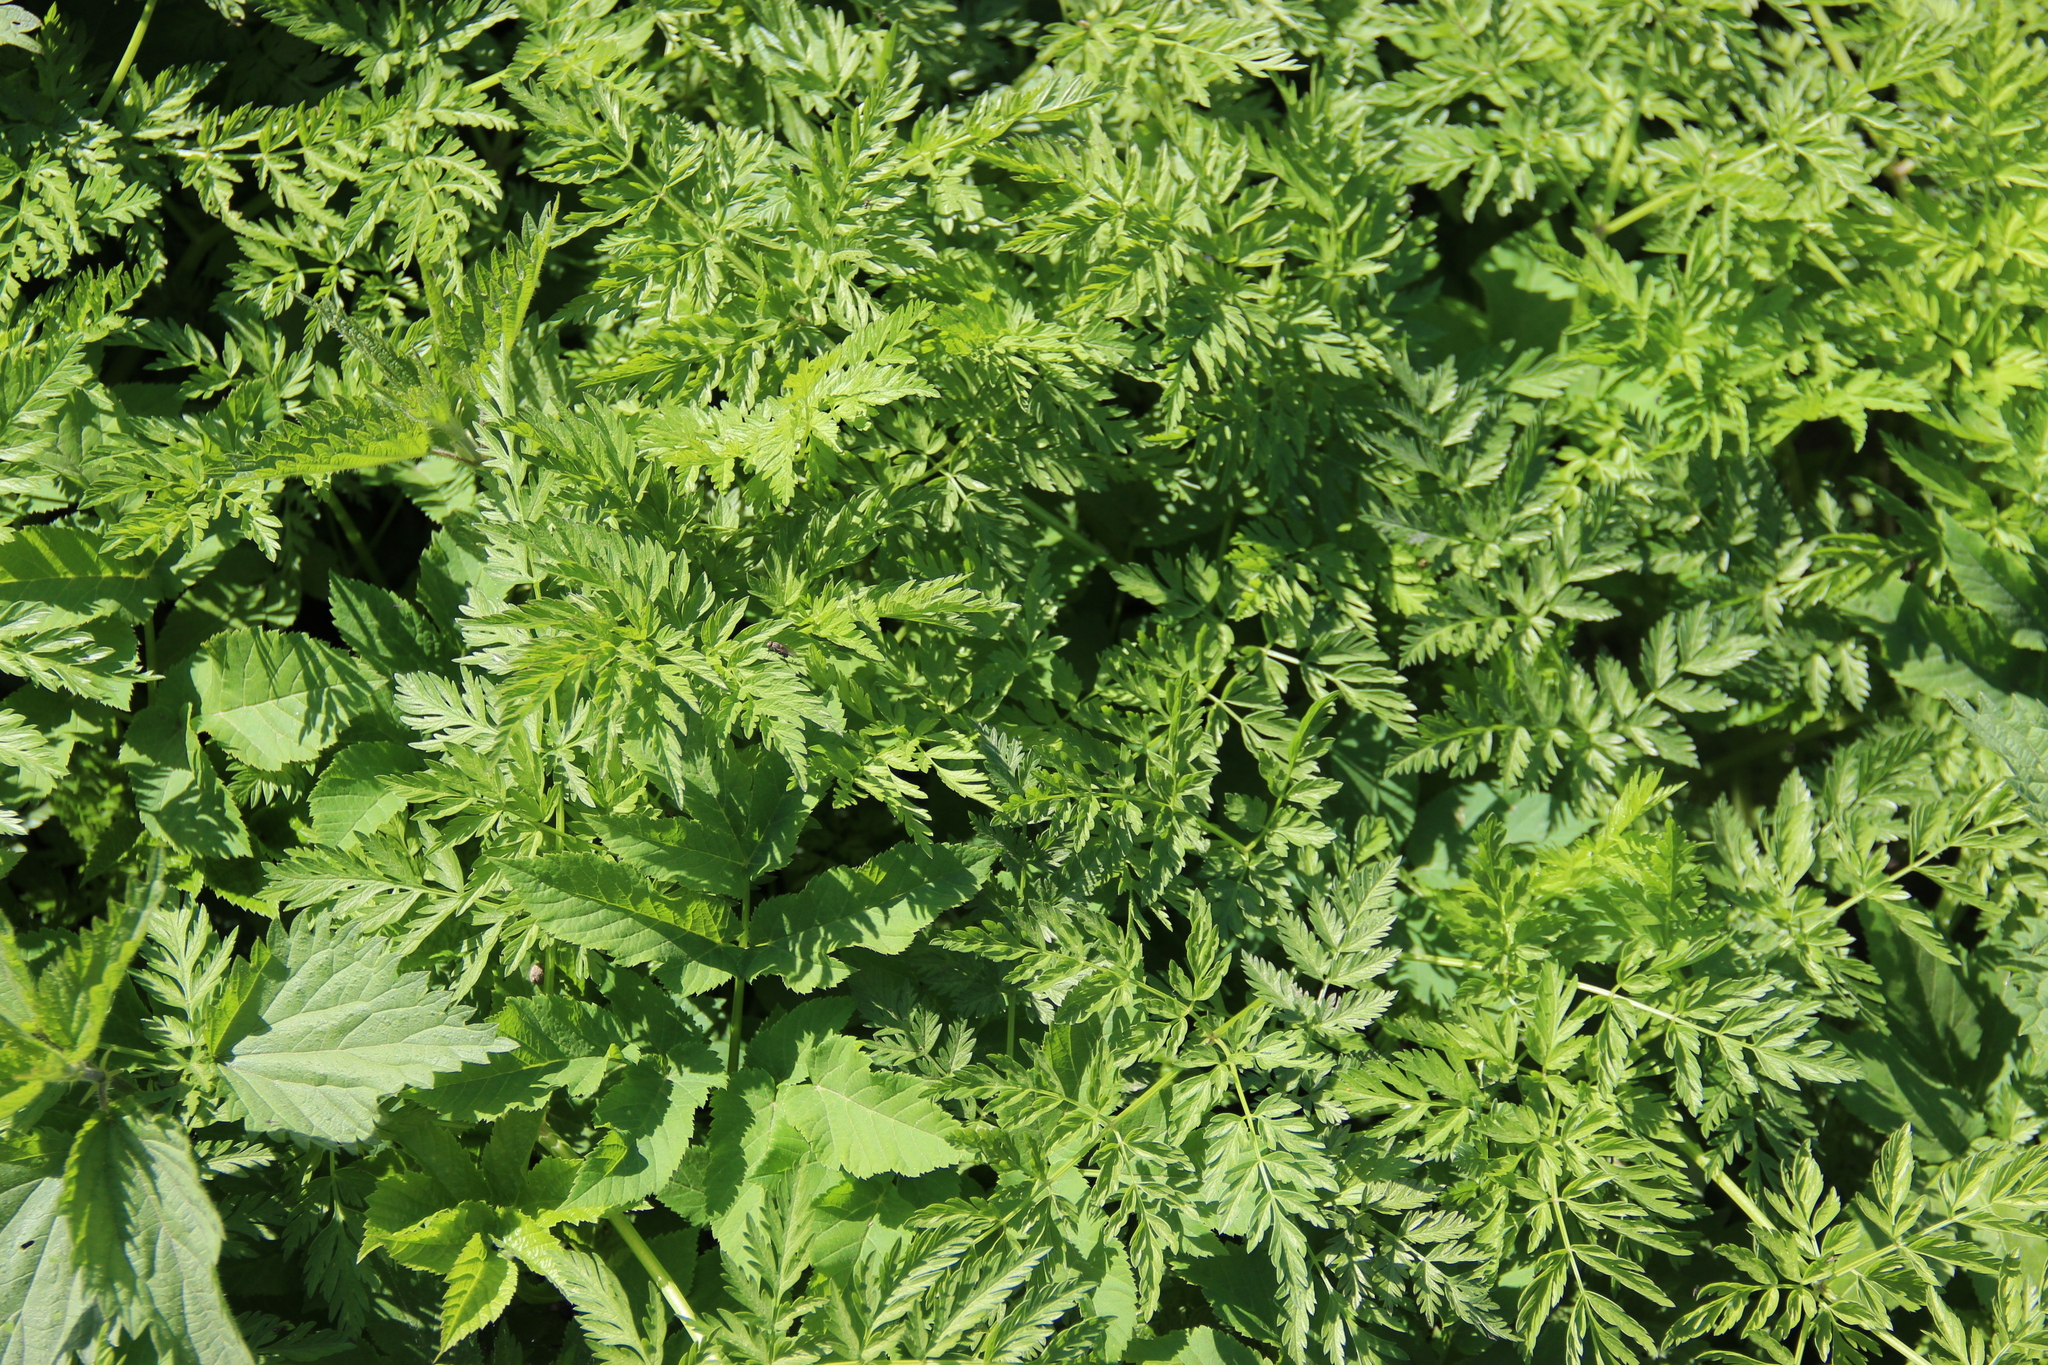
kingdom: Plantae
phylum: Tracheophyta
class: Magnoliopsida
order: Apiales
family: Apiaceae
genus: Anthriscus
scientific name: Anthriscus sylvestris
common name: Cow parsley
